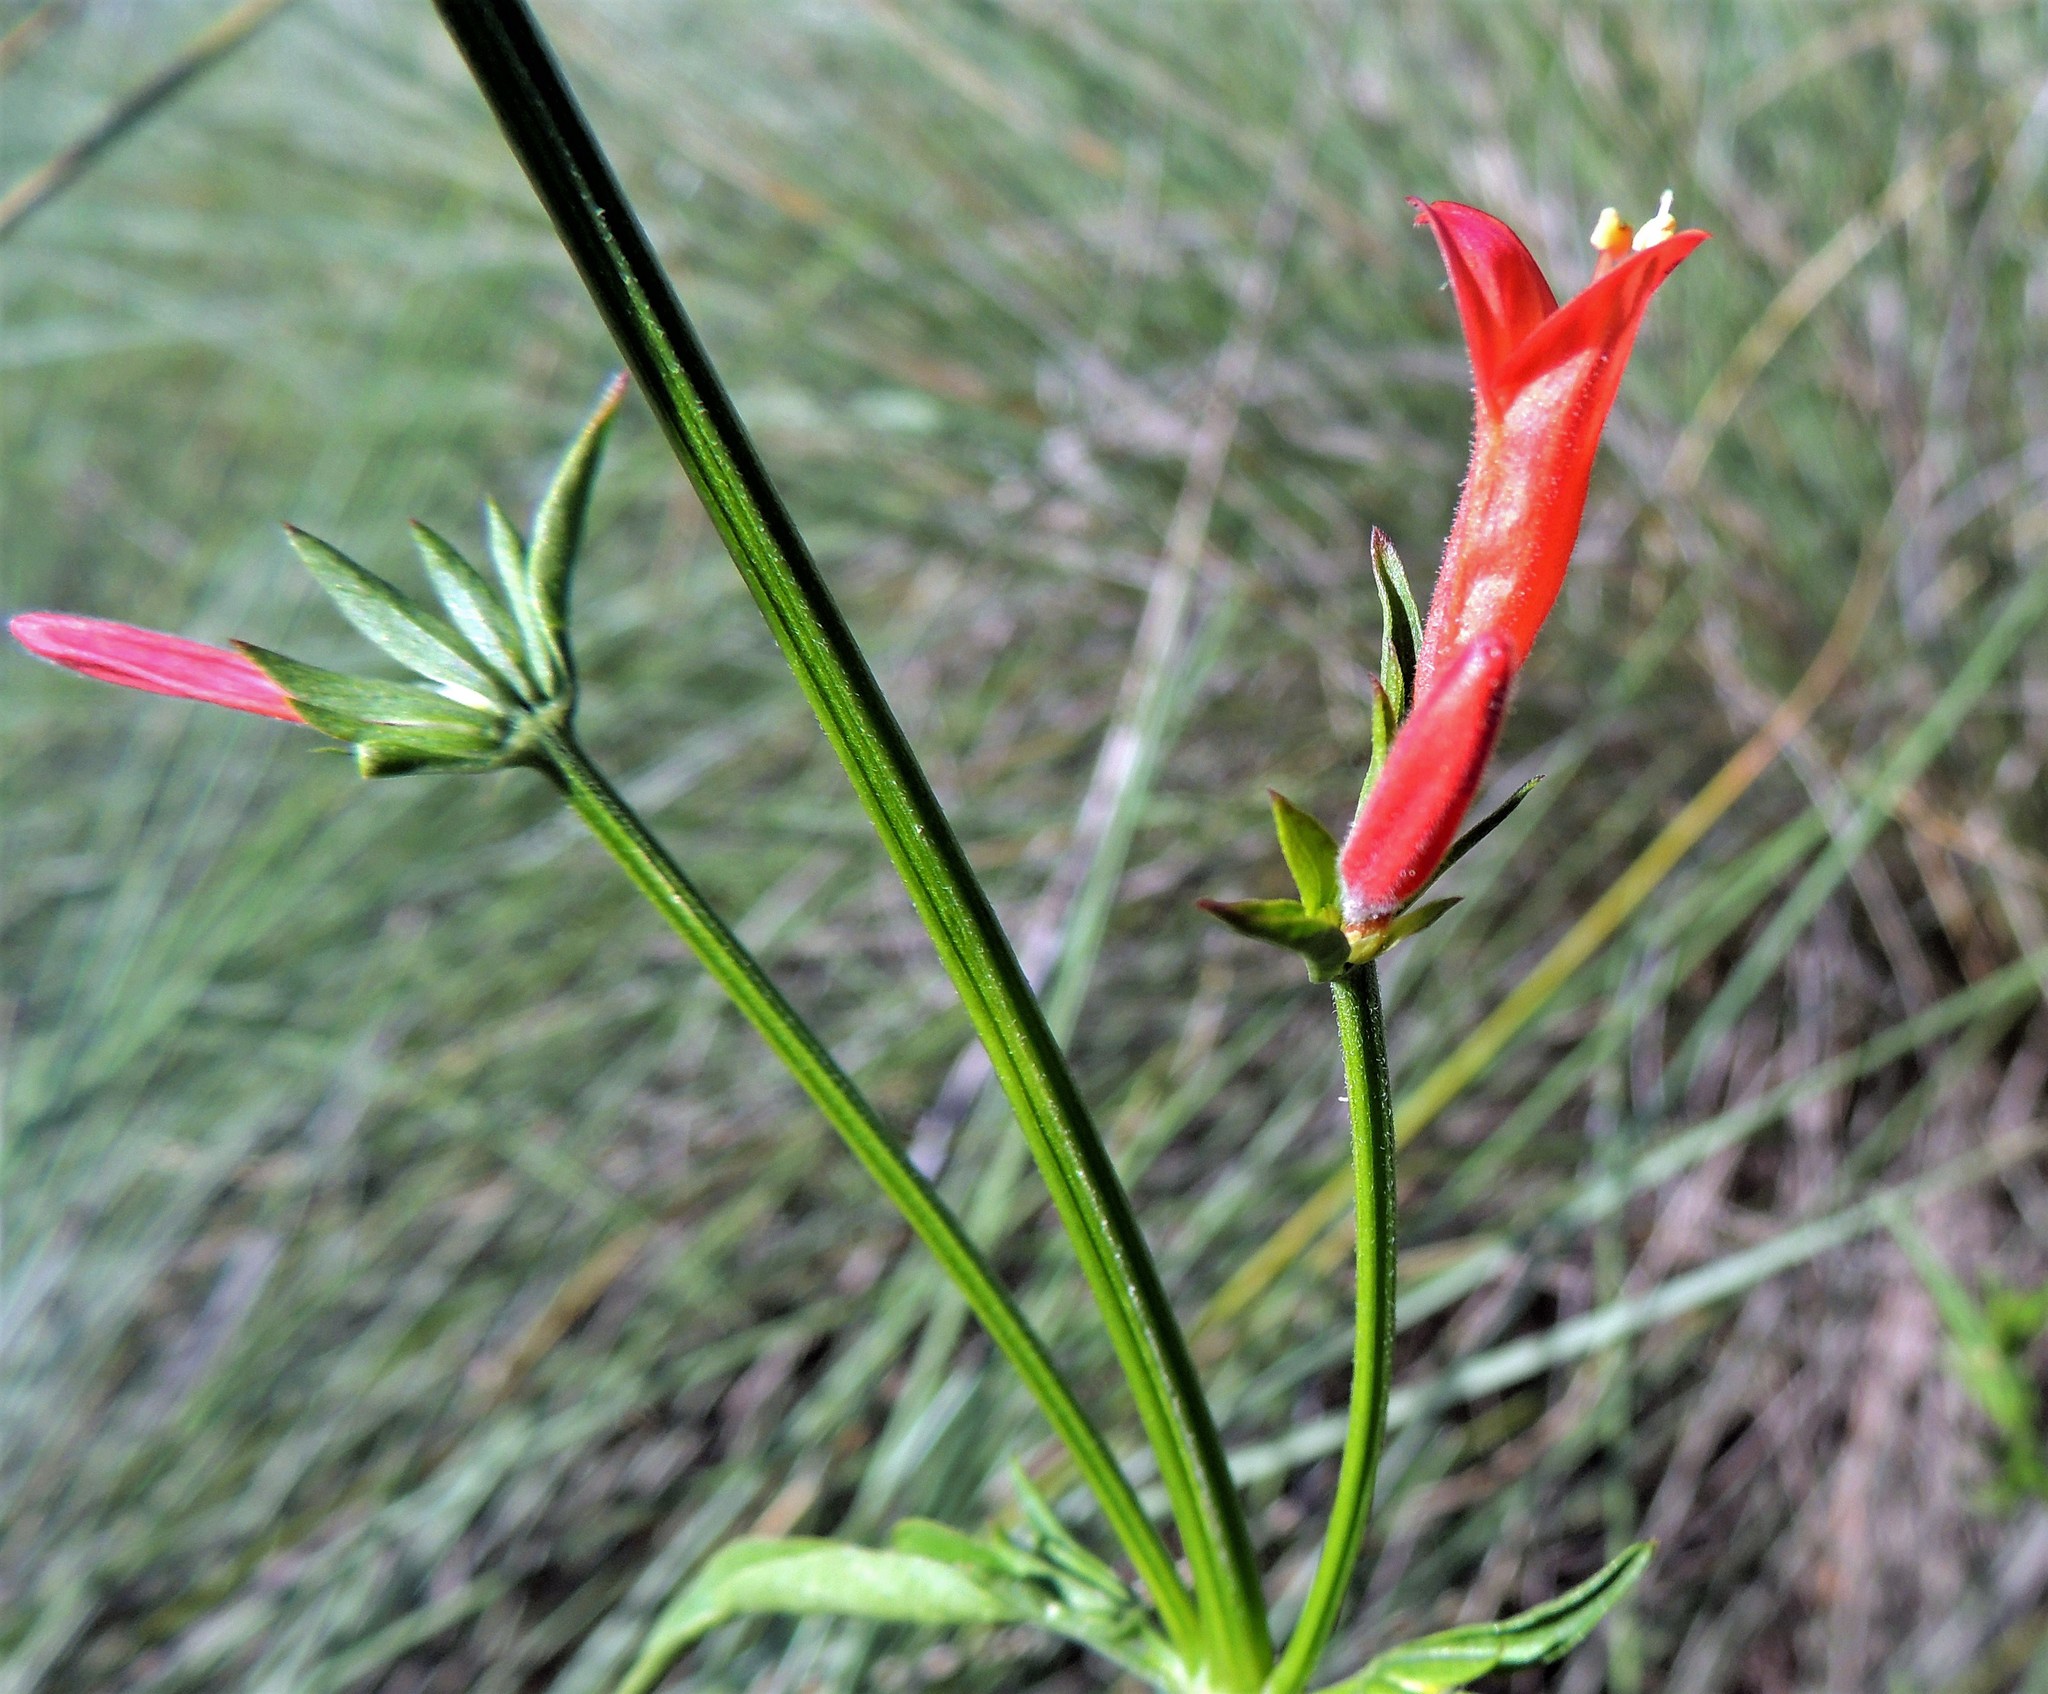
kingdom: Plantae
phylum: Tracheophyta
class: Magnoliopsida
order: Lamiales
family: Acanthaceae
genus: Dicliptera
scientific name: Dicliptera squarrosa
